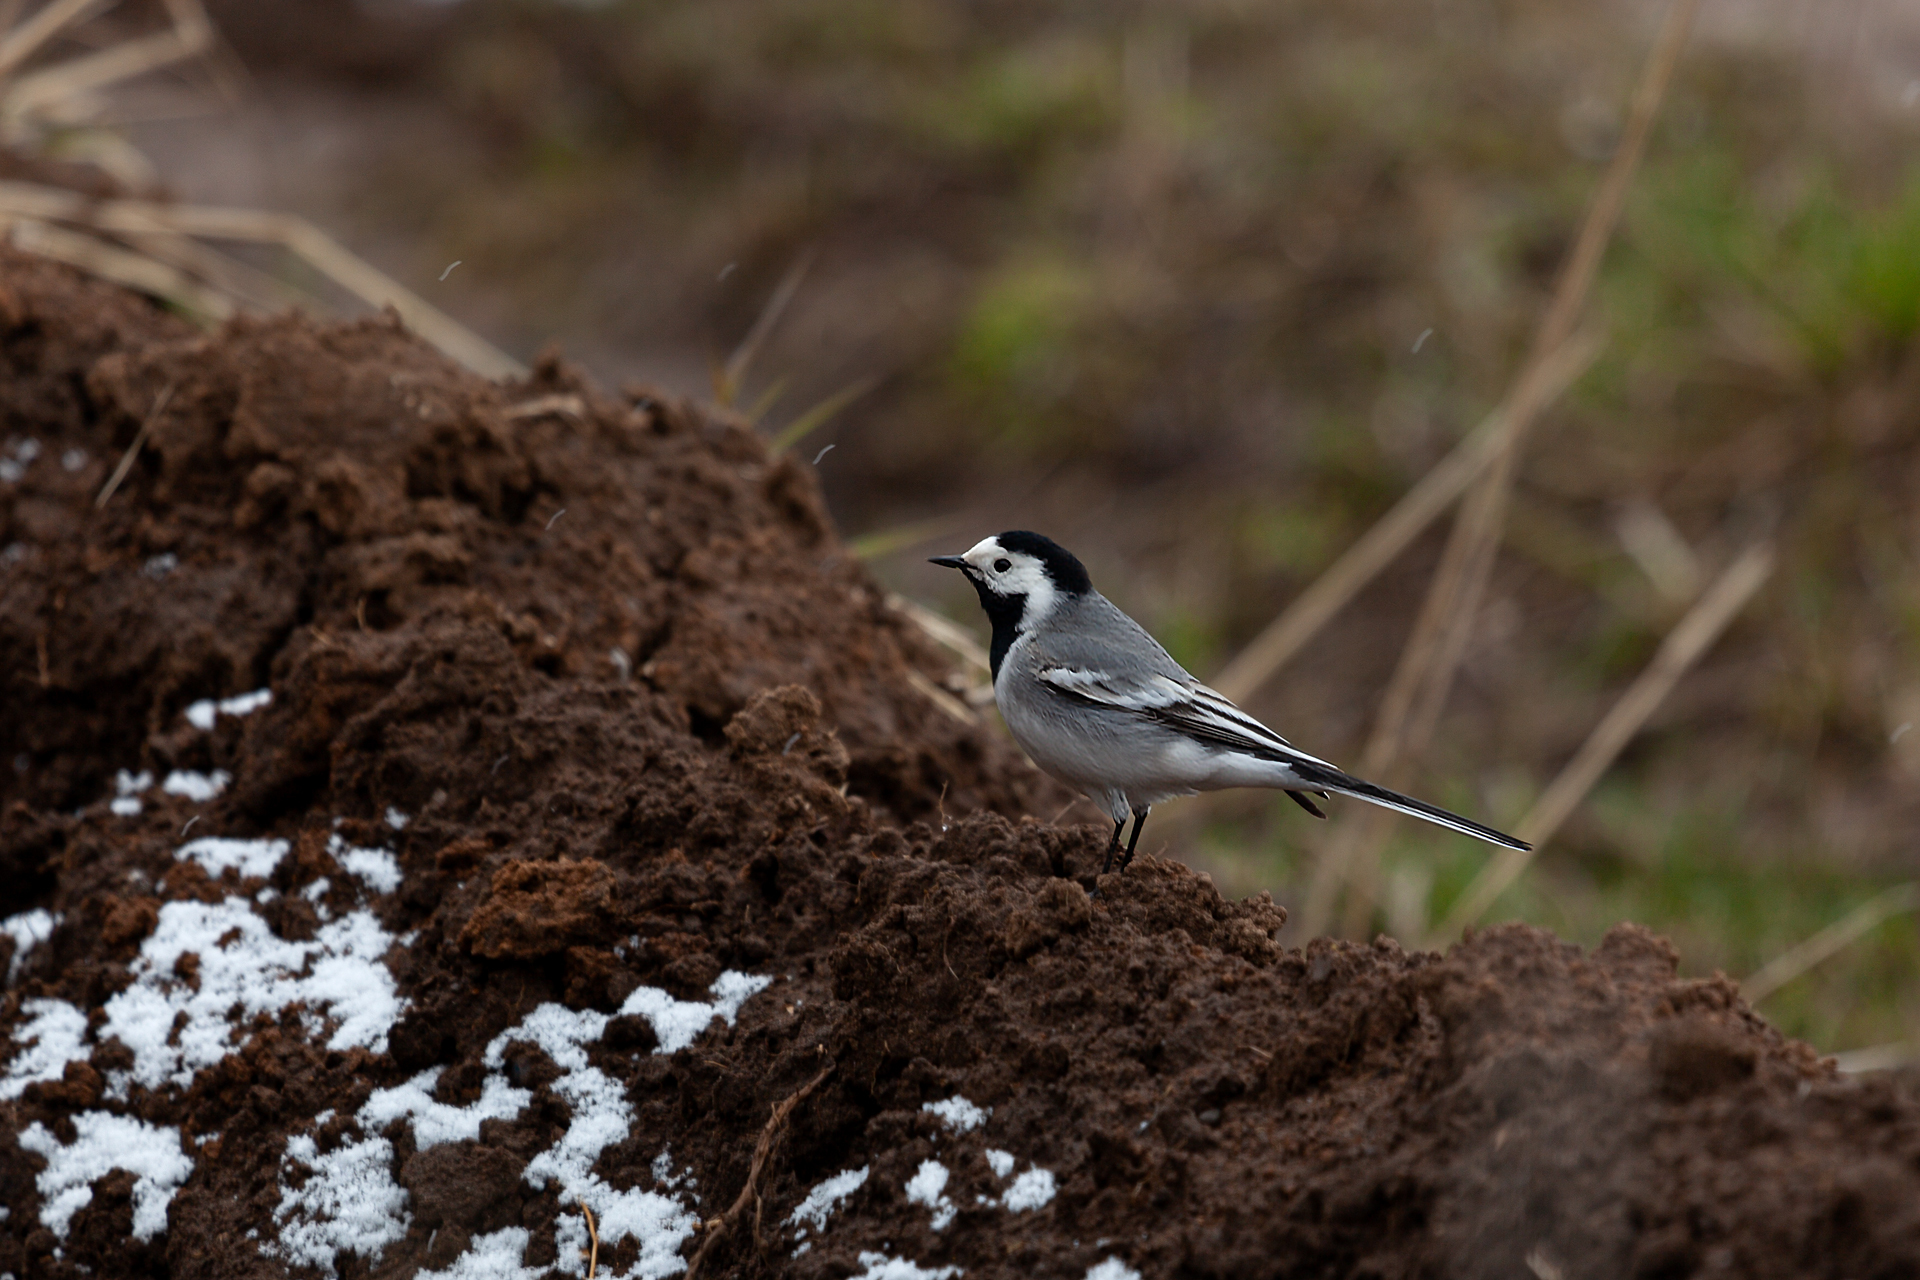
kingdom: Animalia
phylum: Chordata
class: Aves
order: Passeriformes
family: Motacillidae
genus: Motacilla
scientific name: Motacilla alba
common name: White wagtail
